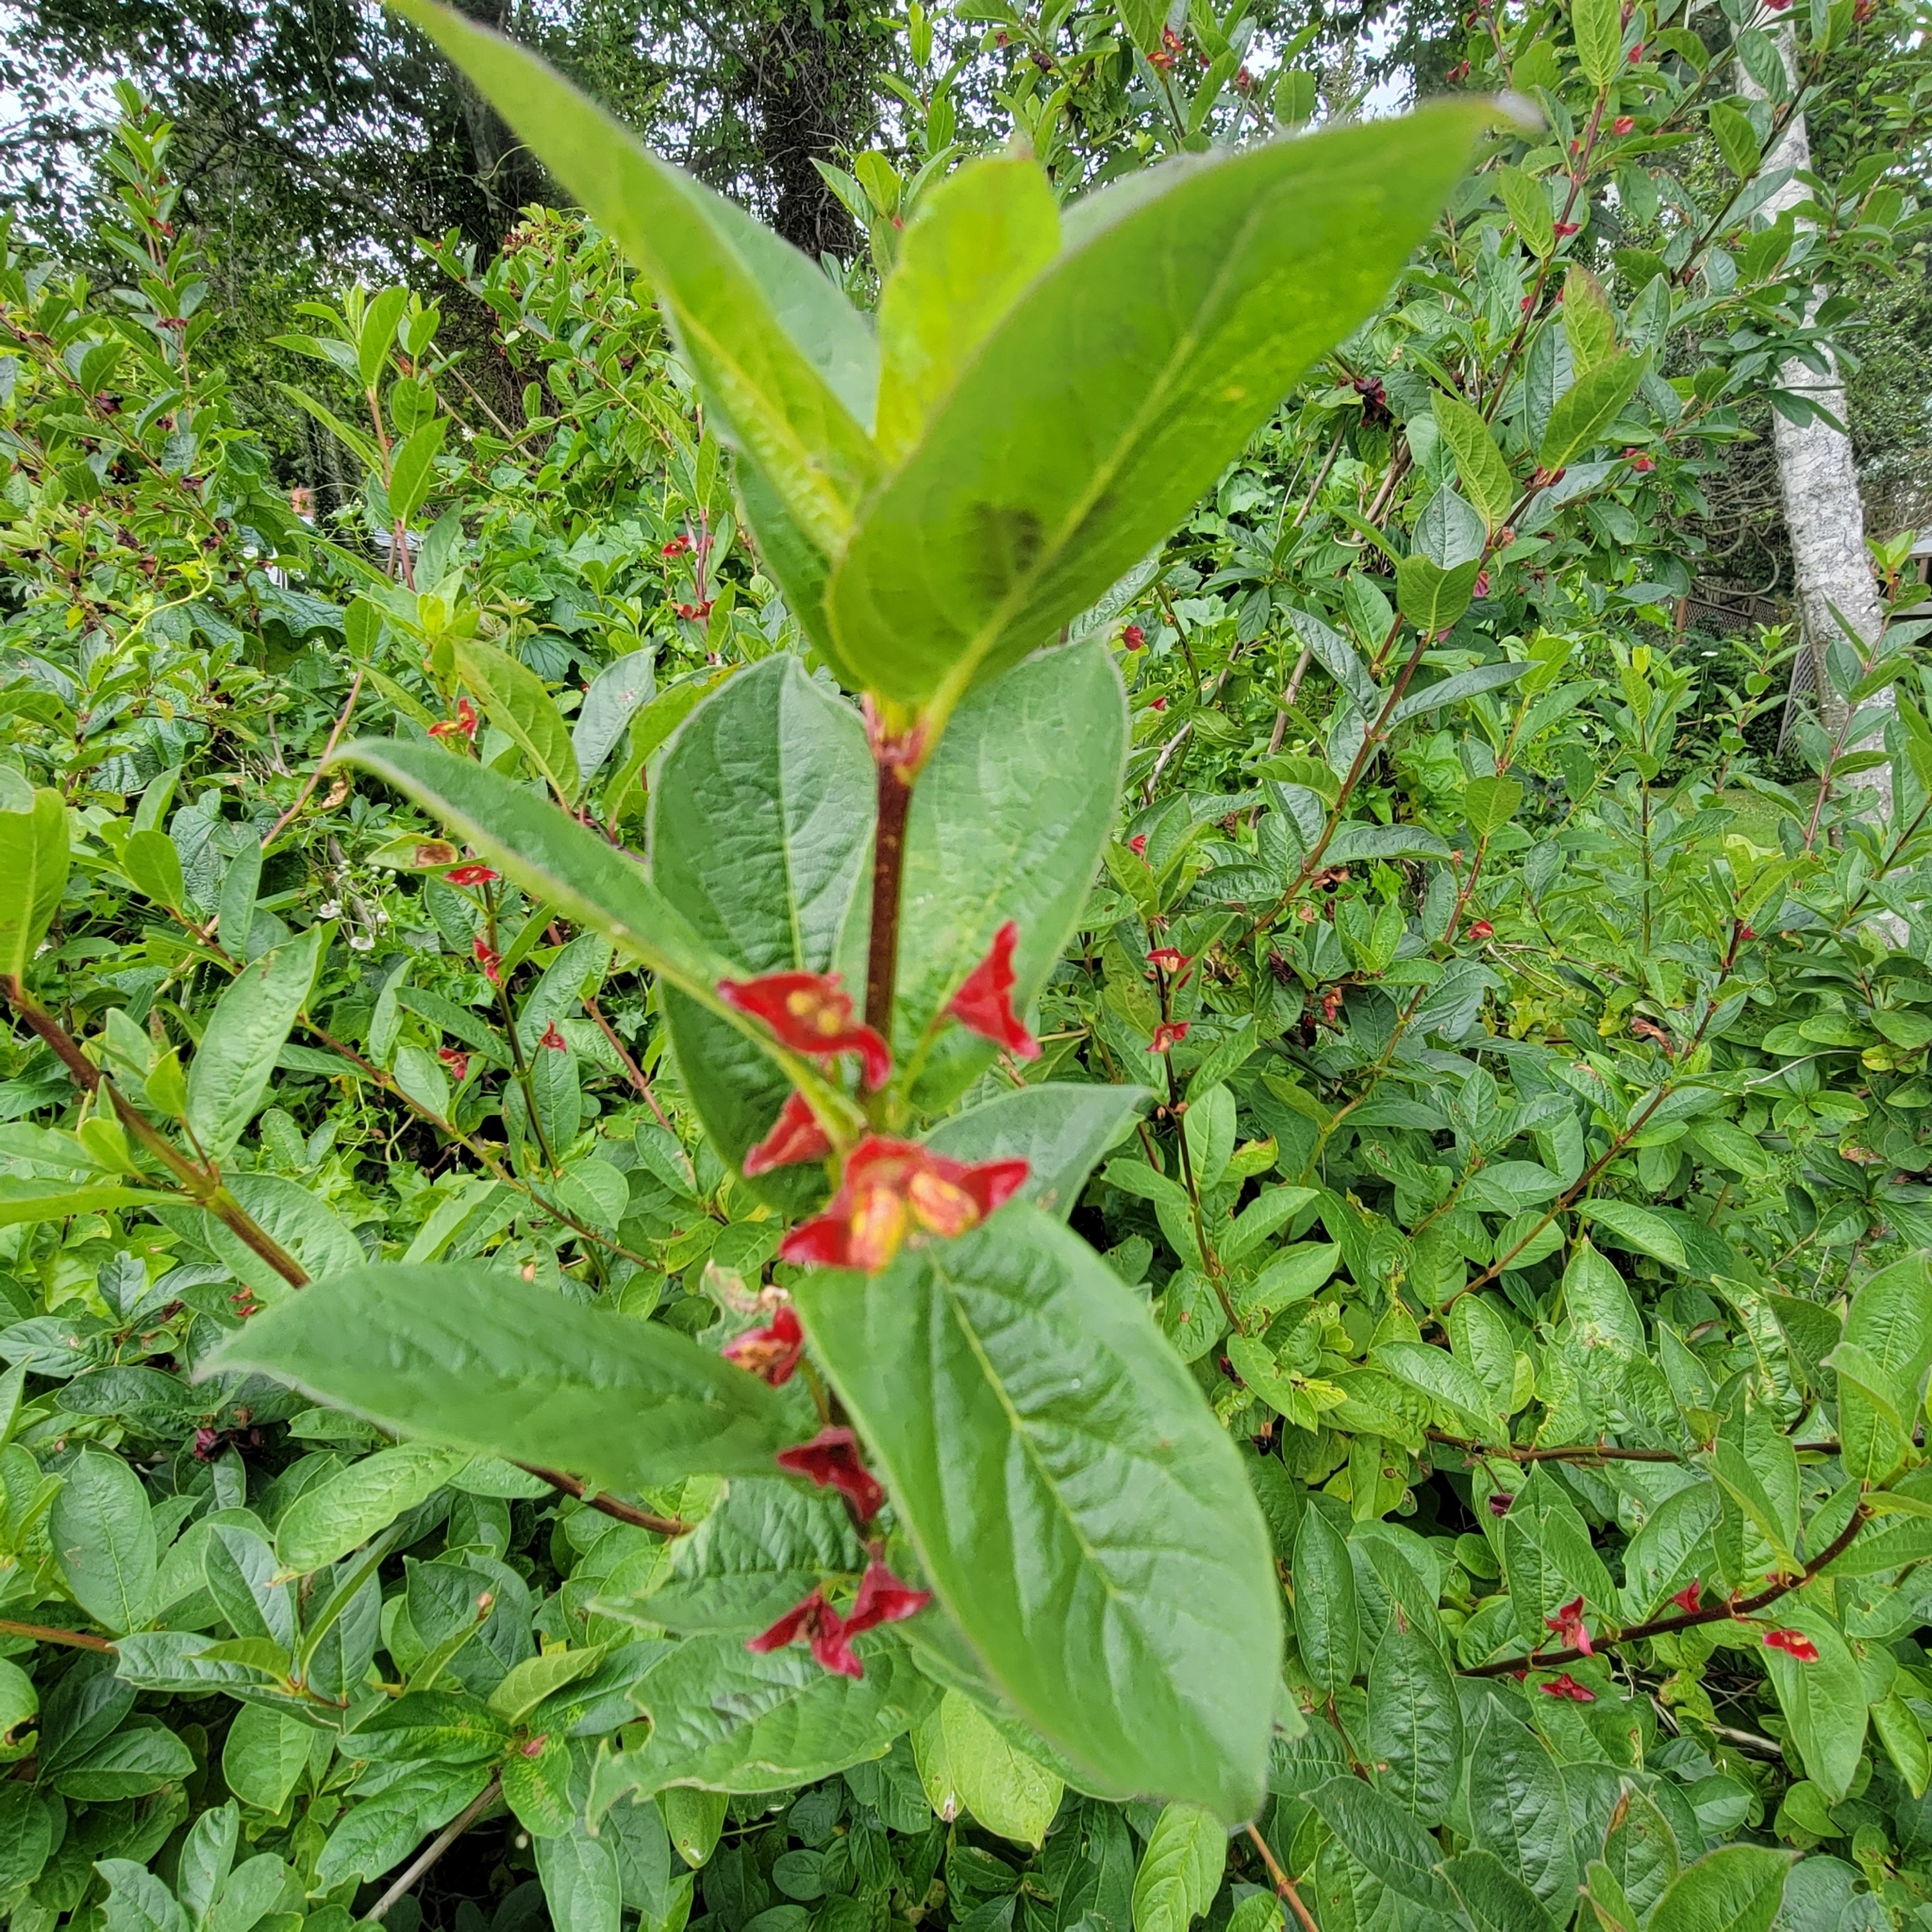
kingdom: Plantae
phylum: Tracheophyta
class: Magnoliopsida
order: Dipsacales
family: Caprifoliaceae
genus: Lonicera
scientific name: Lonicera involucrata
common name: Californian honeysuckle
